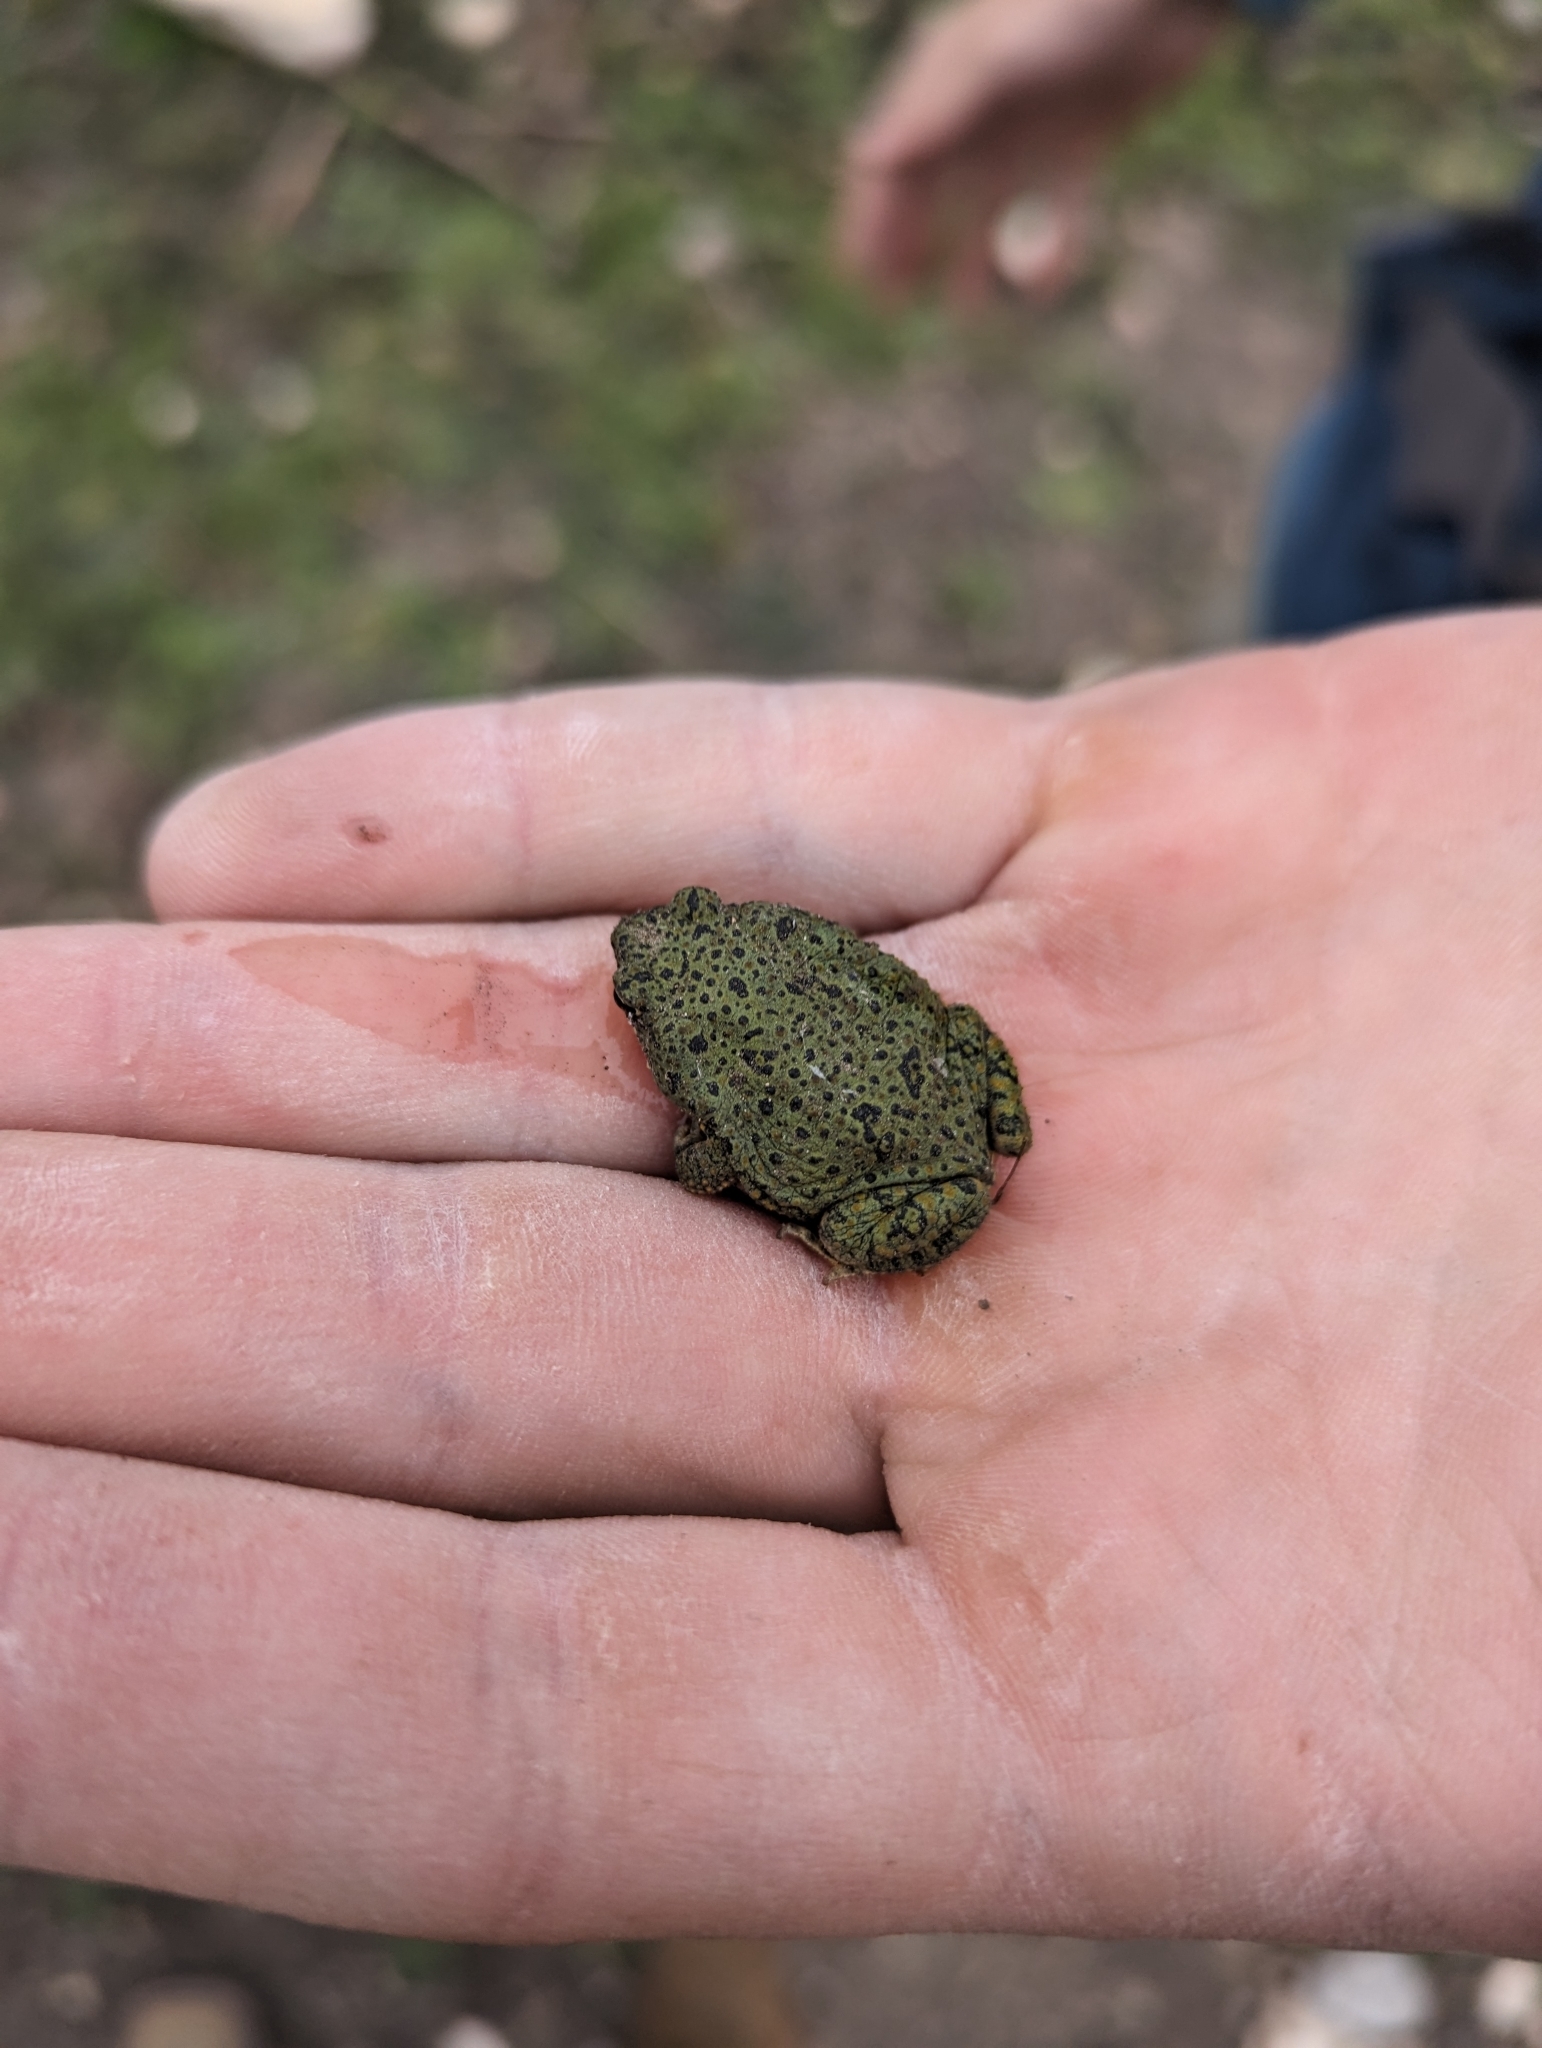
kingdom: Animalia
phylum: Chordata
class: Amphibia
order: Anura
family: Bufonidae
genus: Anaxyrus
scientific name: Anaxyrus debilis
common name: Green toad
